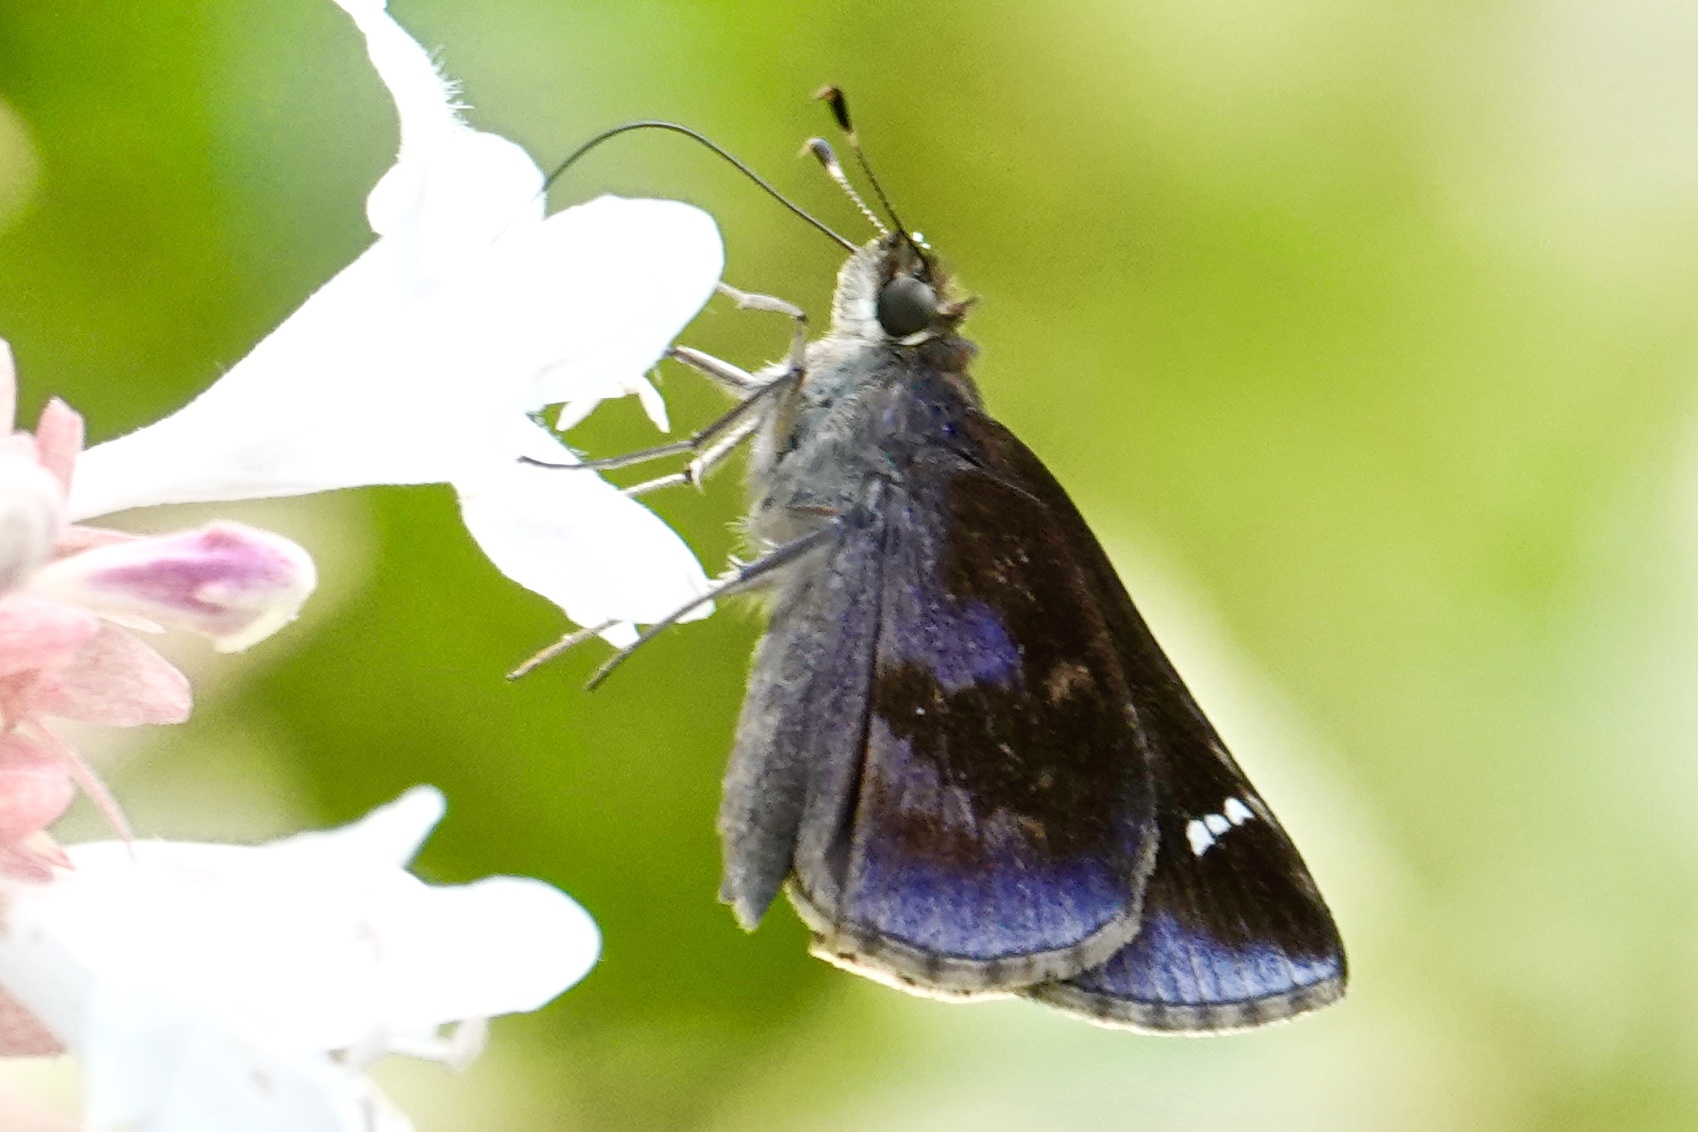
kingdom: Animalia
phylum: Arthropoda
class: Insecta
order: Lepidoptera
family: Hesperiidae
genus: Lerema
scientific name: Lerema accius
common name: Clouded skipper
